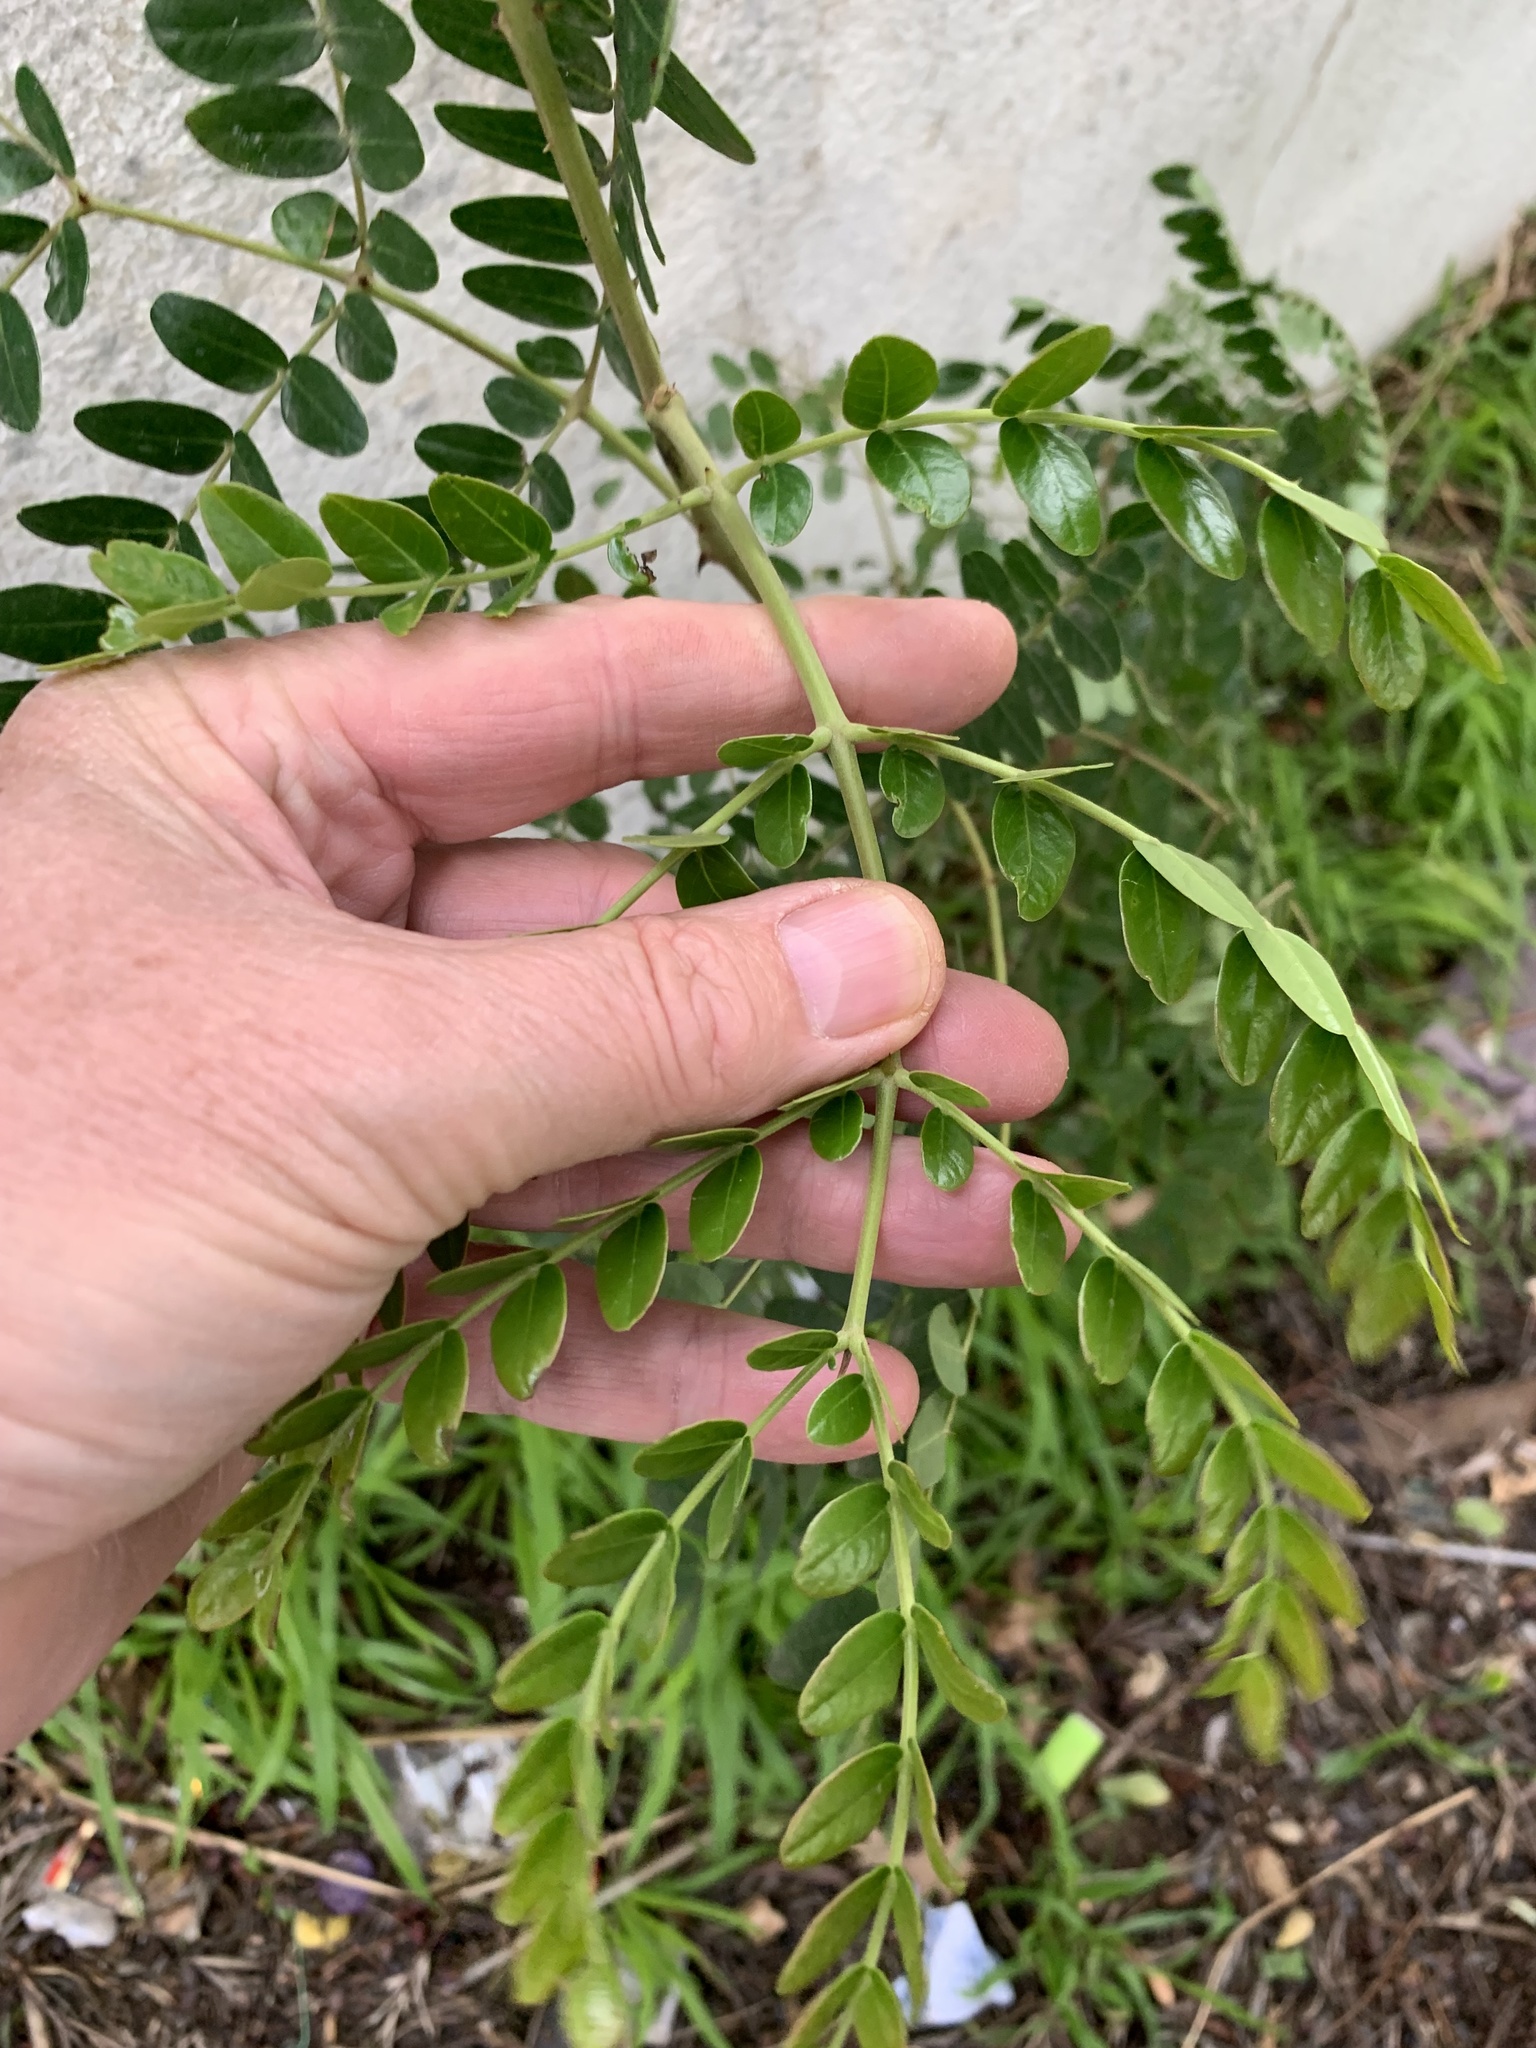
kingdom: Plantae
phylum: Tracheophyta
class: Magnoliopsida
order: Fabales
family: Fabaceae
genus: Robinia
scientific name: Robinia pseudoacacia
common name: Black locust
